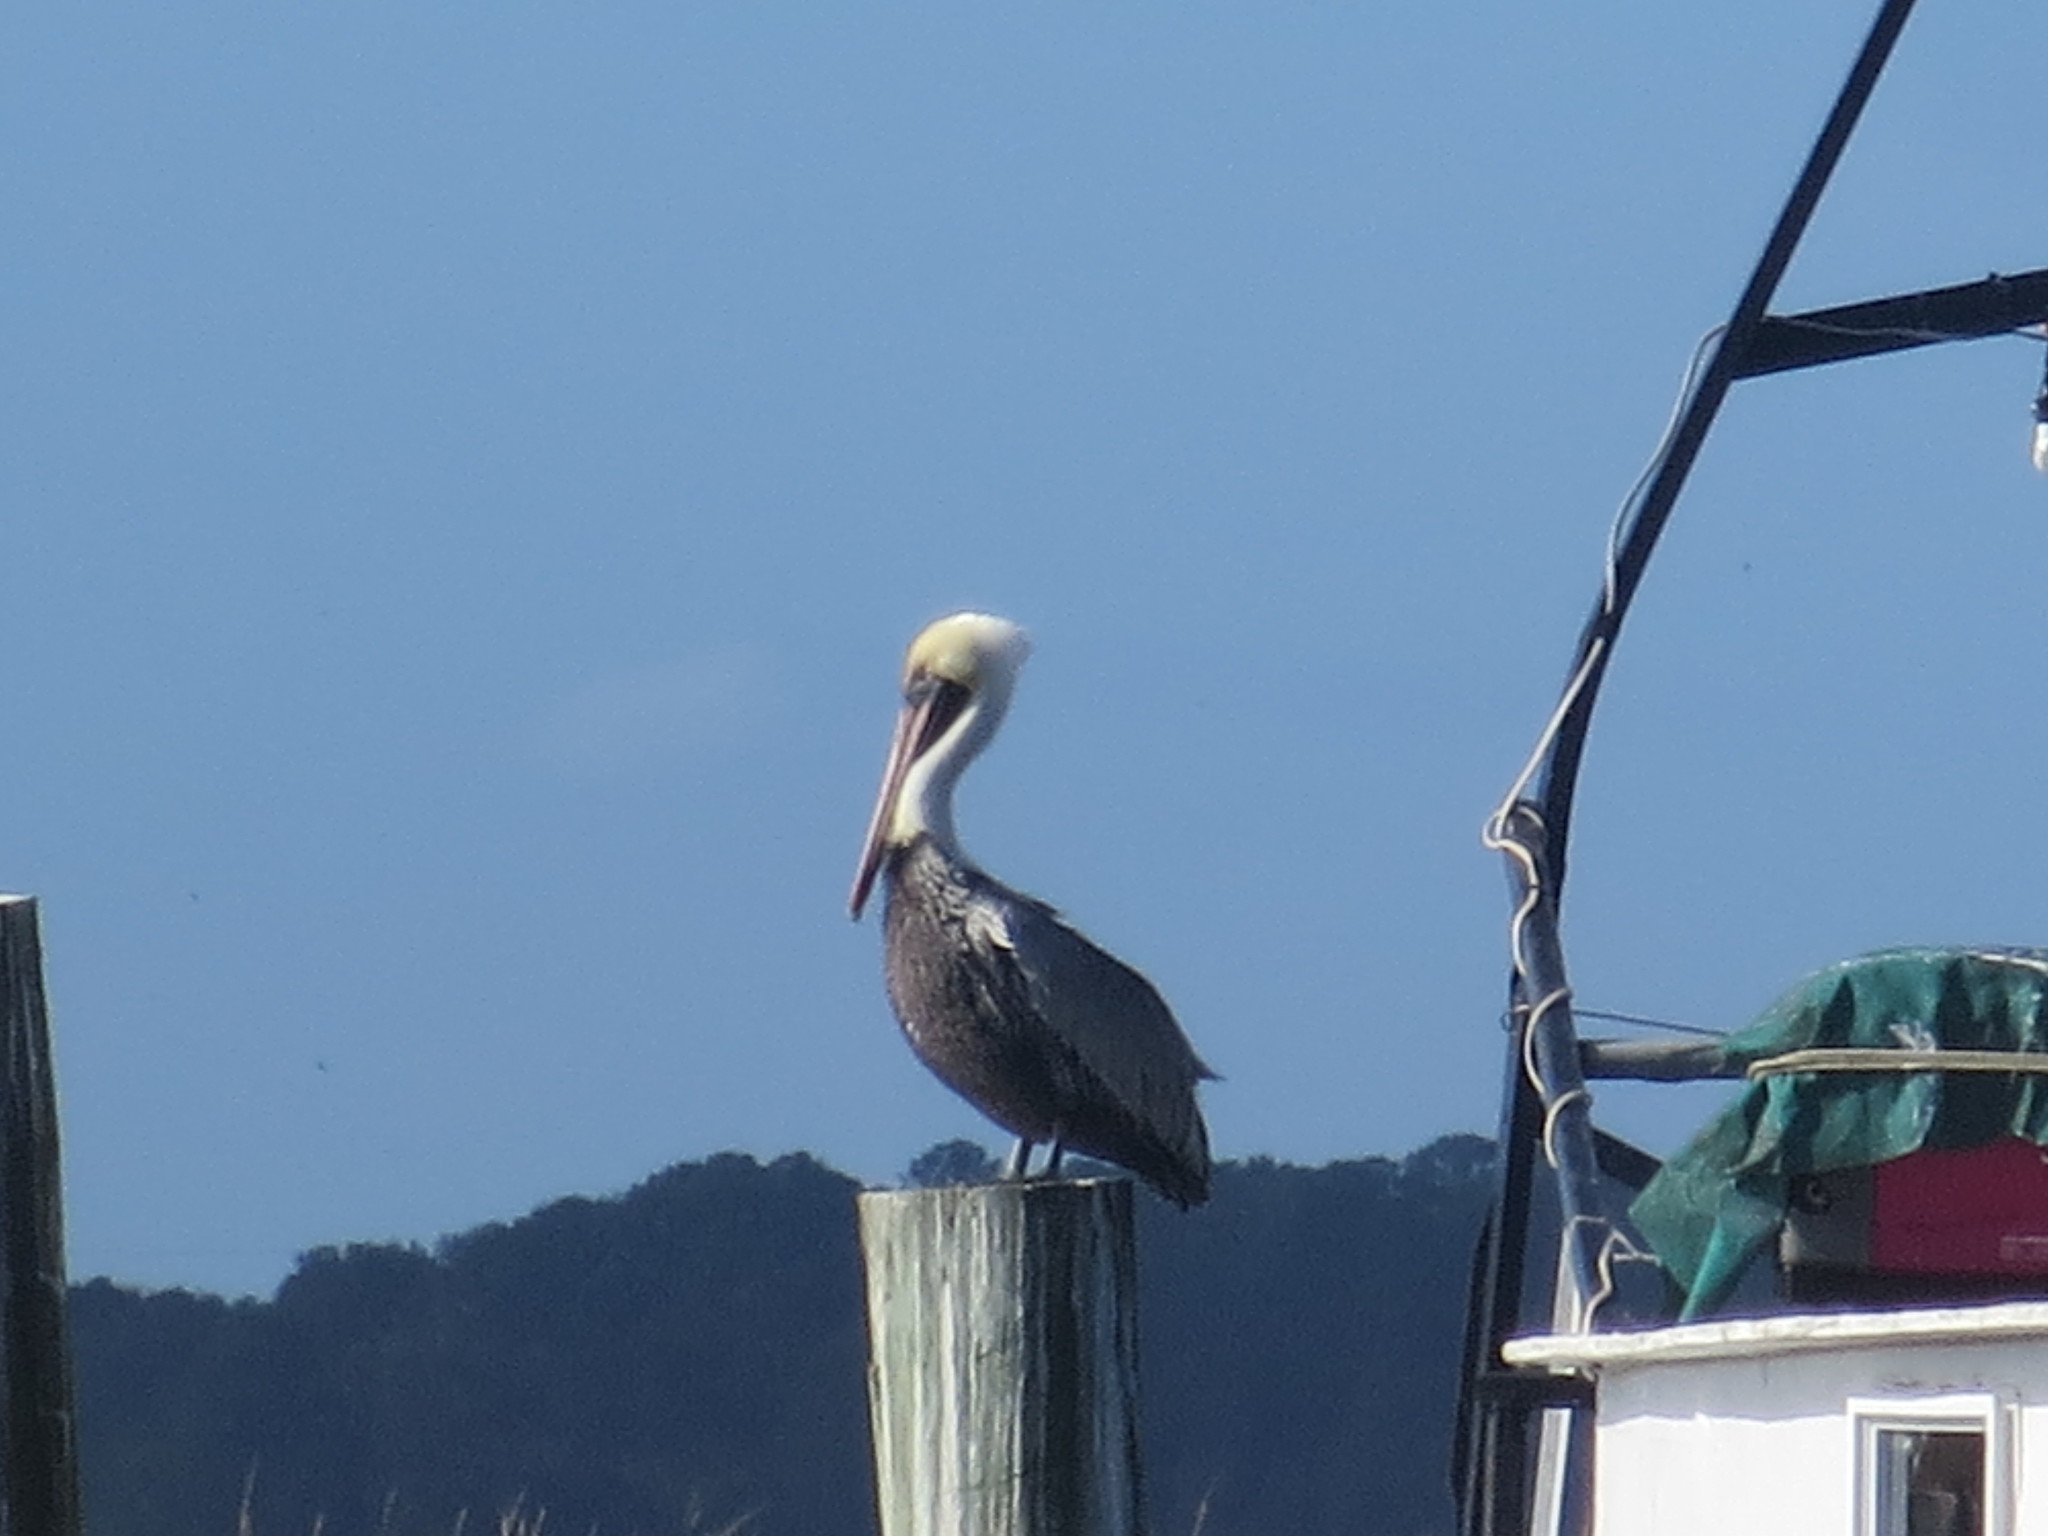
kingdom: Animalia
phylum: Chordata
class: Aves
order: Pelecaniformes
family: Pelecanidae
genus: Pelecanus
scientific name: Pelecanus occidentalis
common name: Brown pelican
